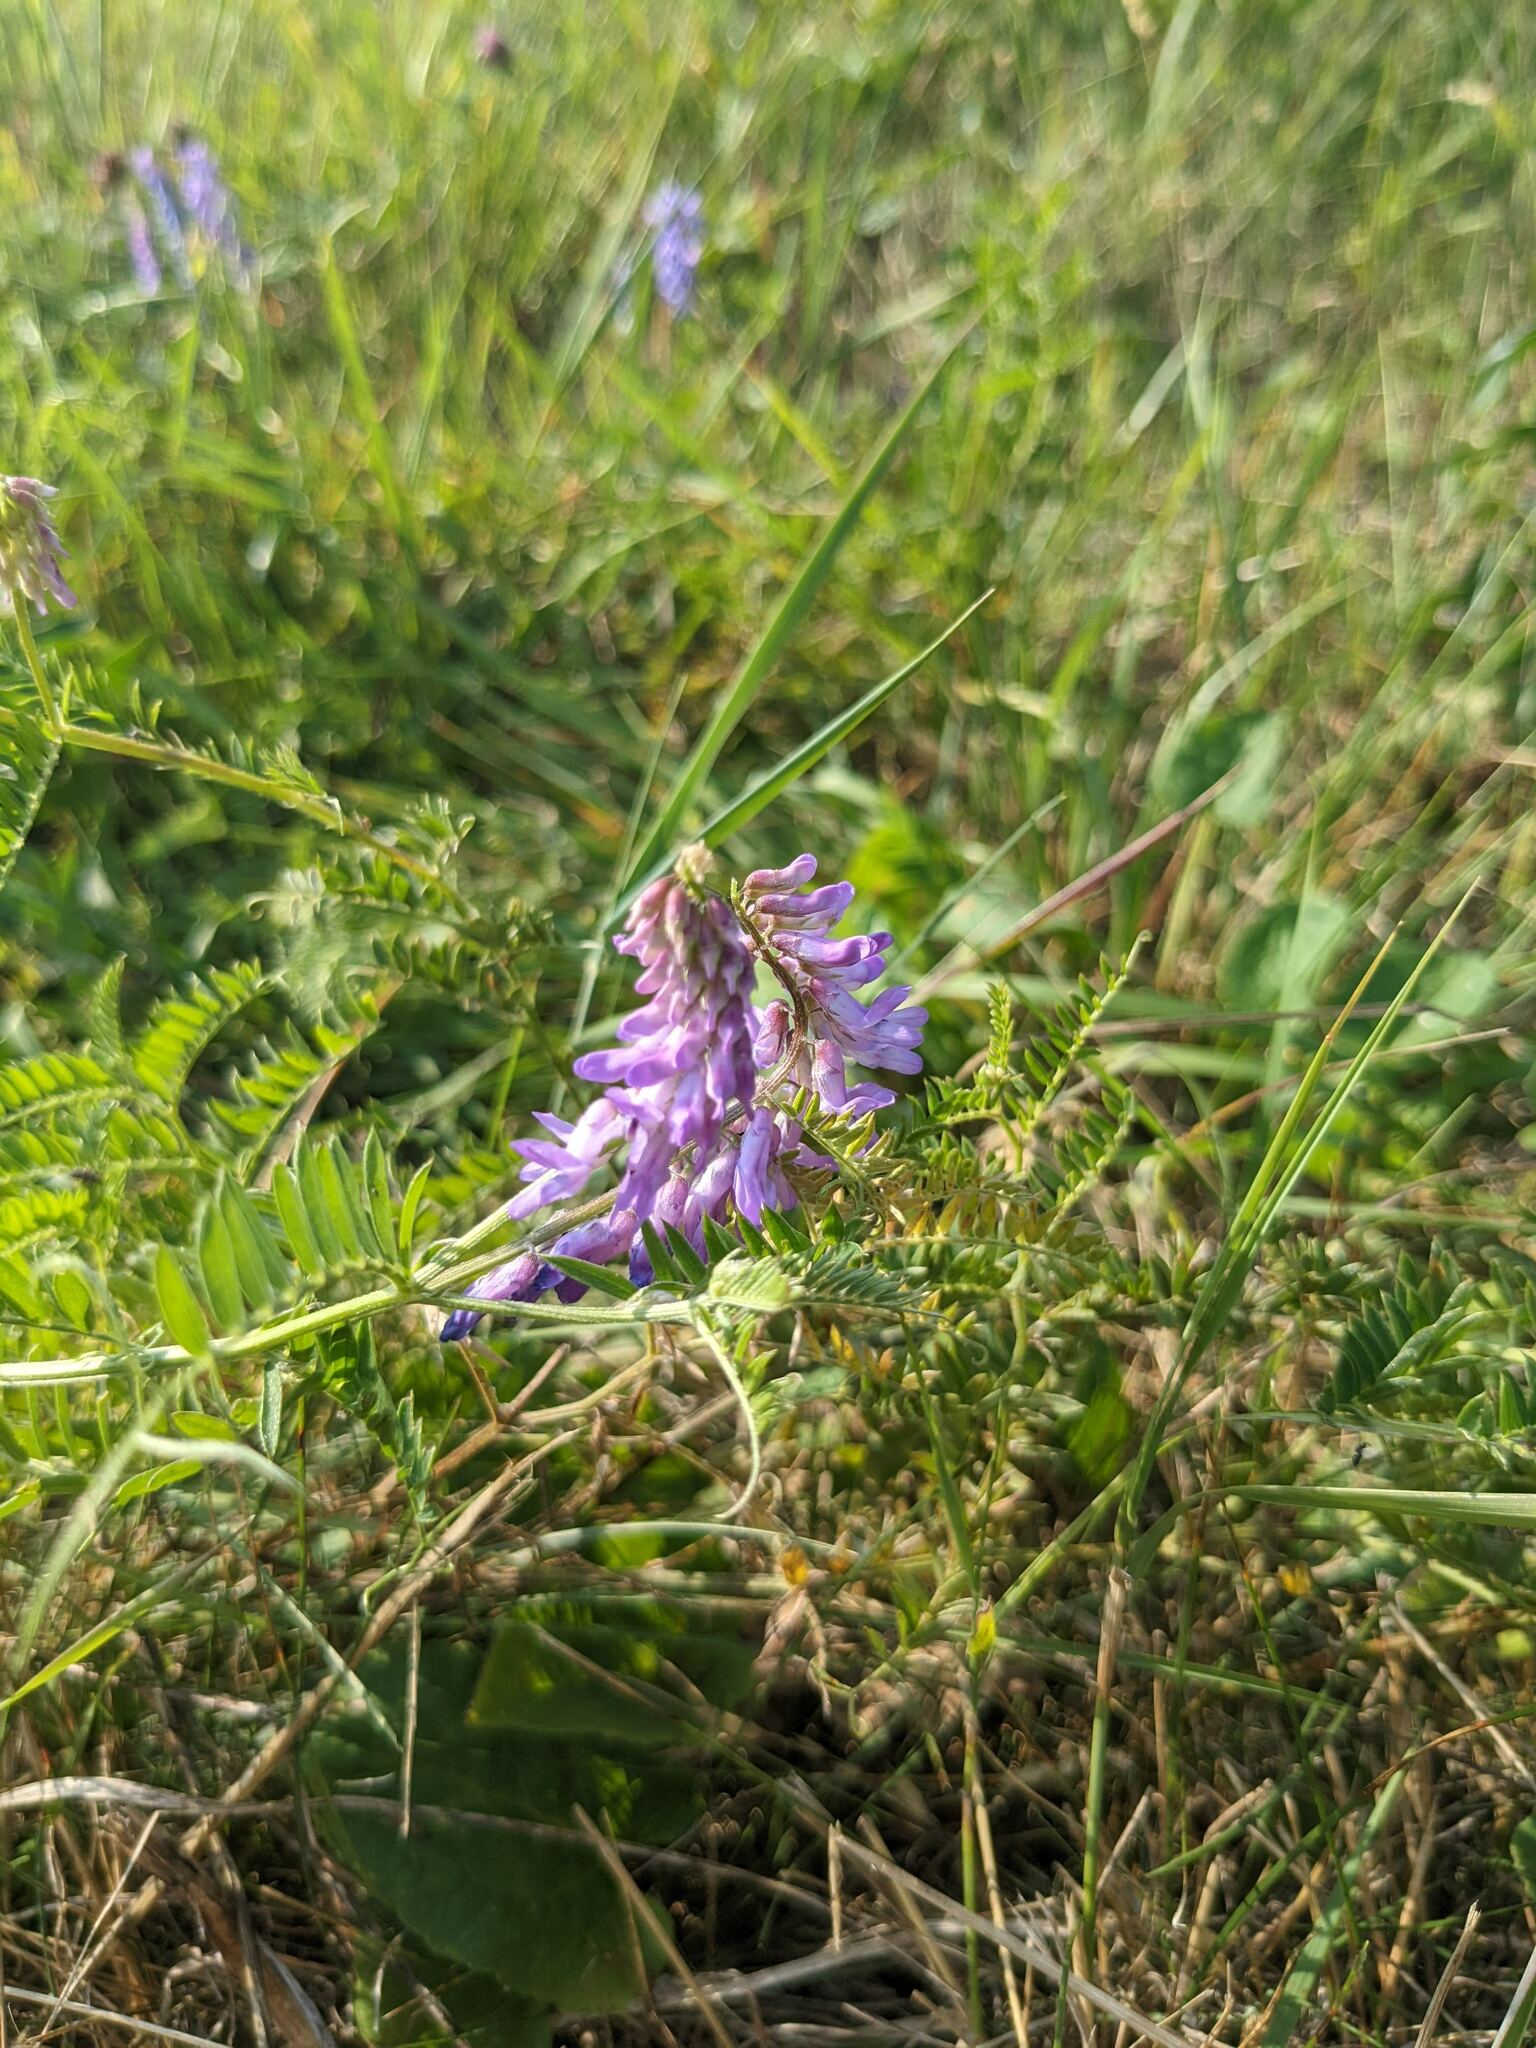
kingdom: Plantae
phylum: Tracheophyta
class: Magnoliopsida
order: Fabales
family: Fabaceae
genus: Vicia
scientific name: Vicia cracca
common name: Bird vetch
